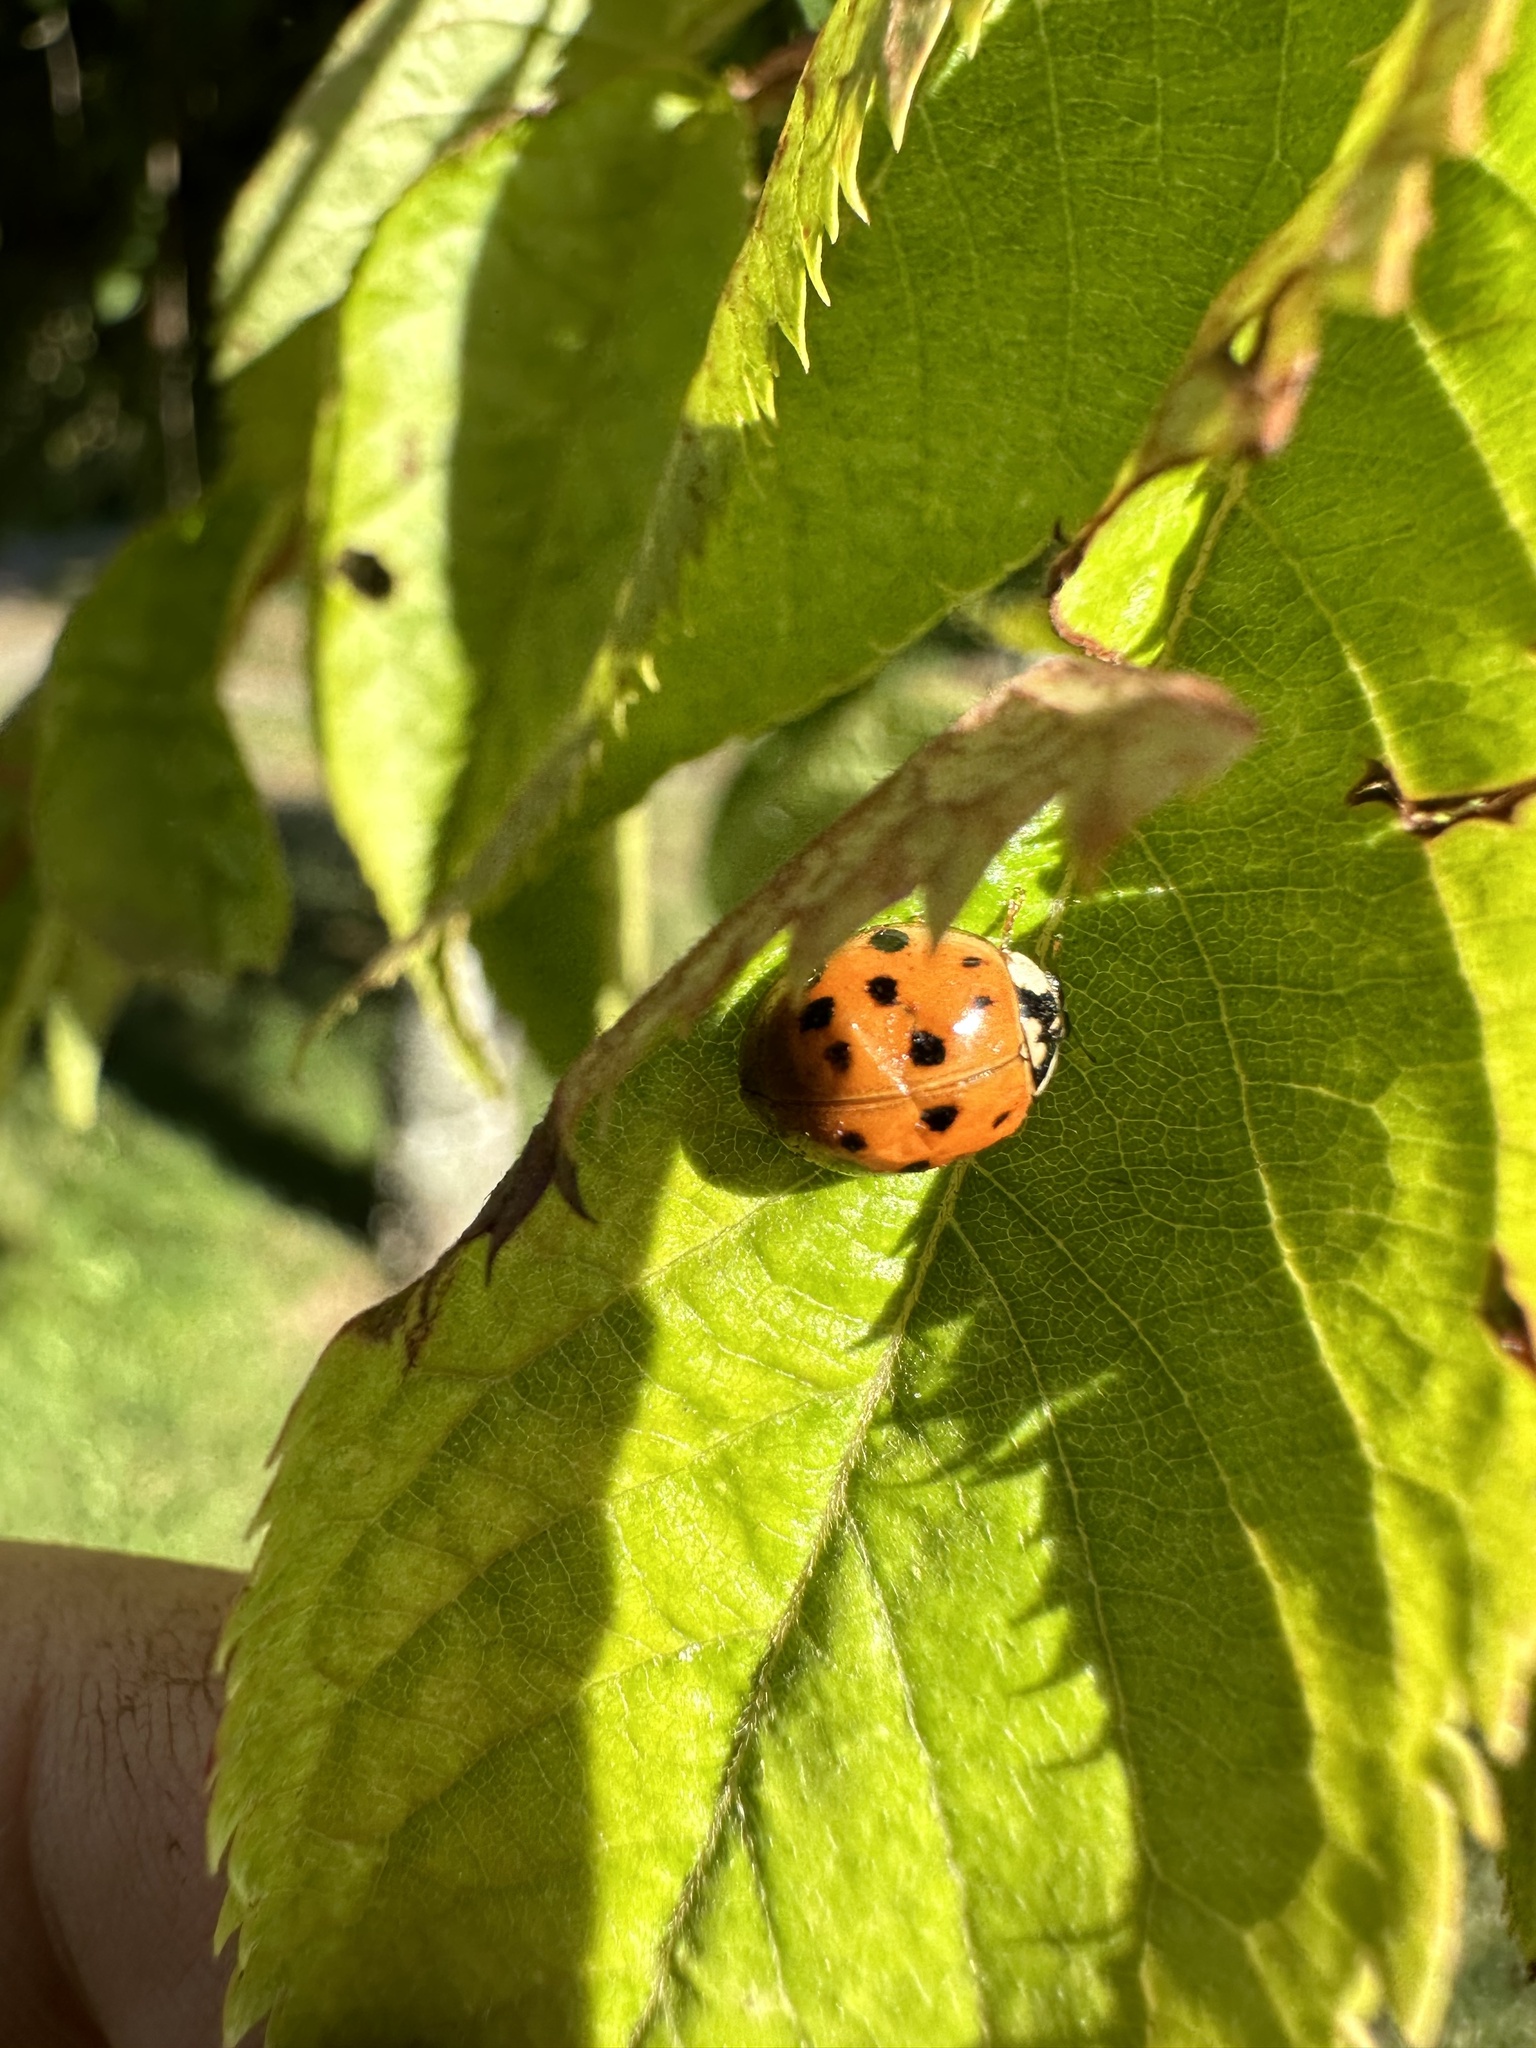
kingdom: Animalia
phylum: Arthropoda
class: Insecta
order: Coleoptera
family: Coccinellidae
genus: Harmonia
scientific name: Harmonia axyridis
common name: Harlequin ladybird
